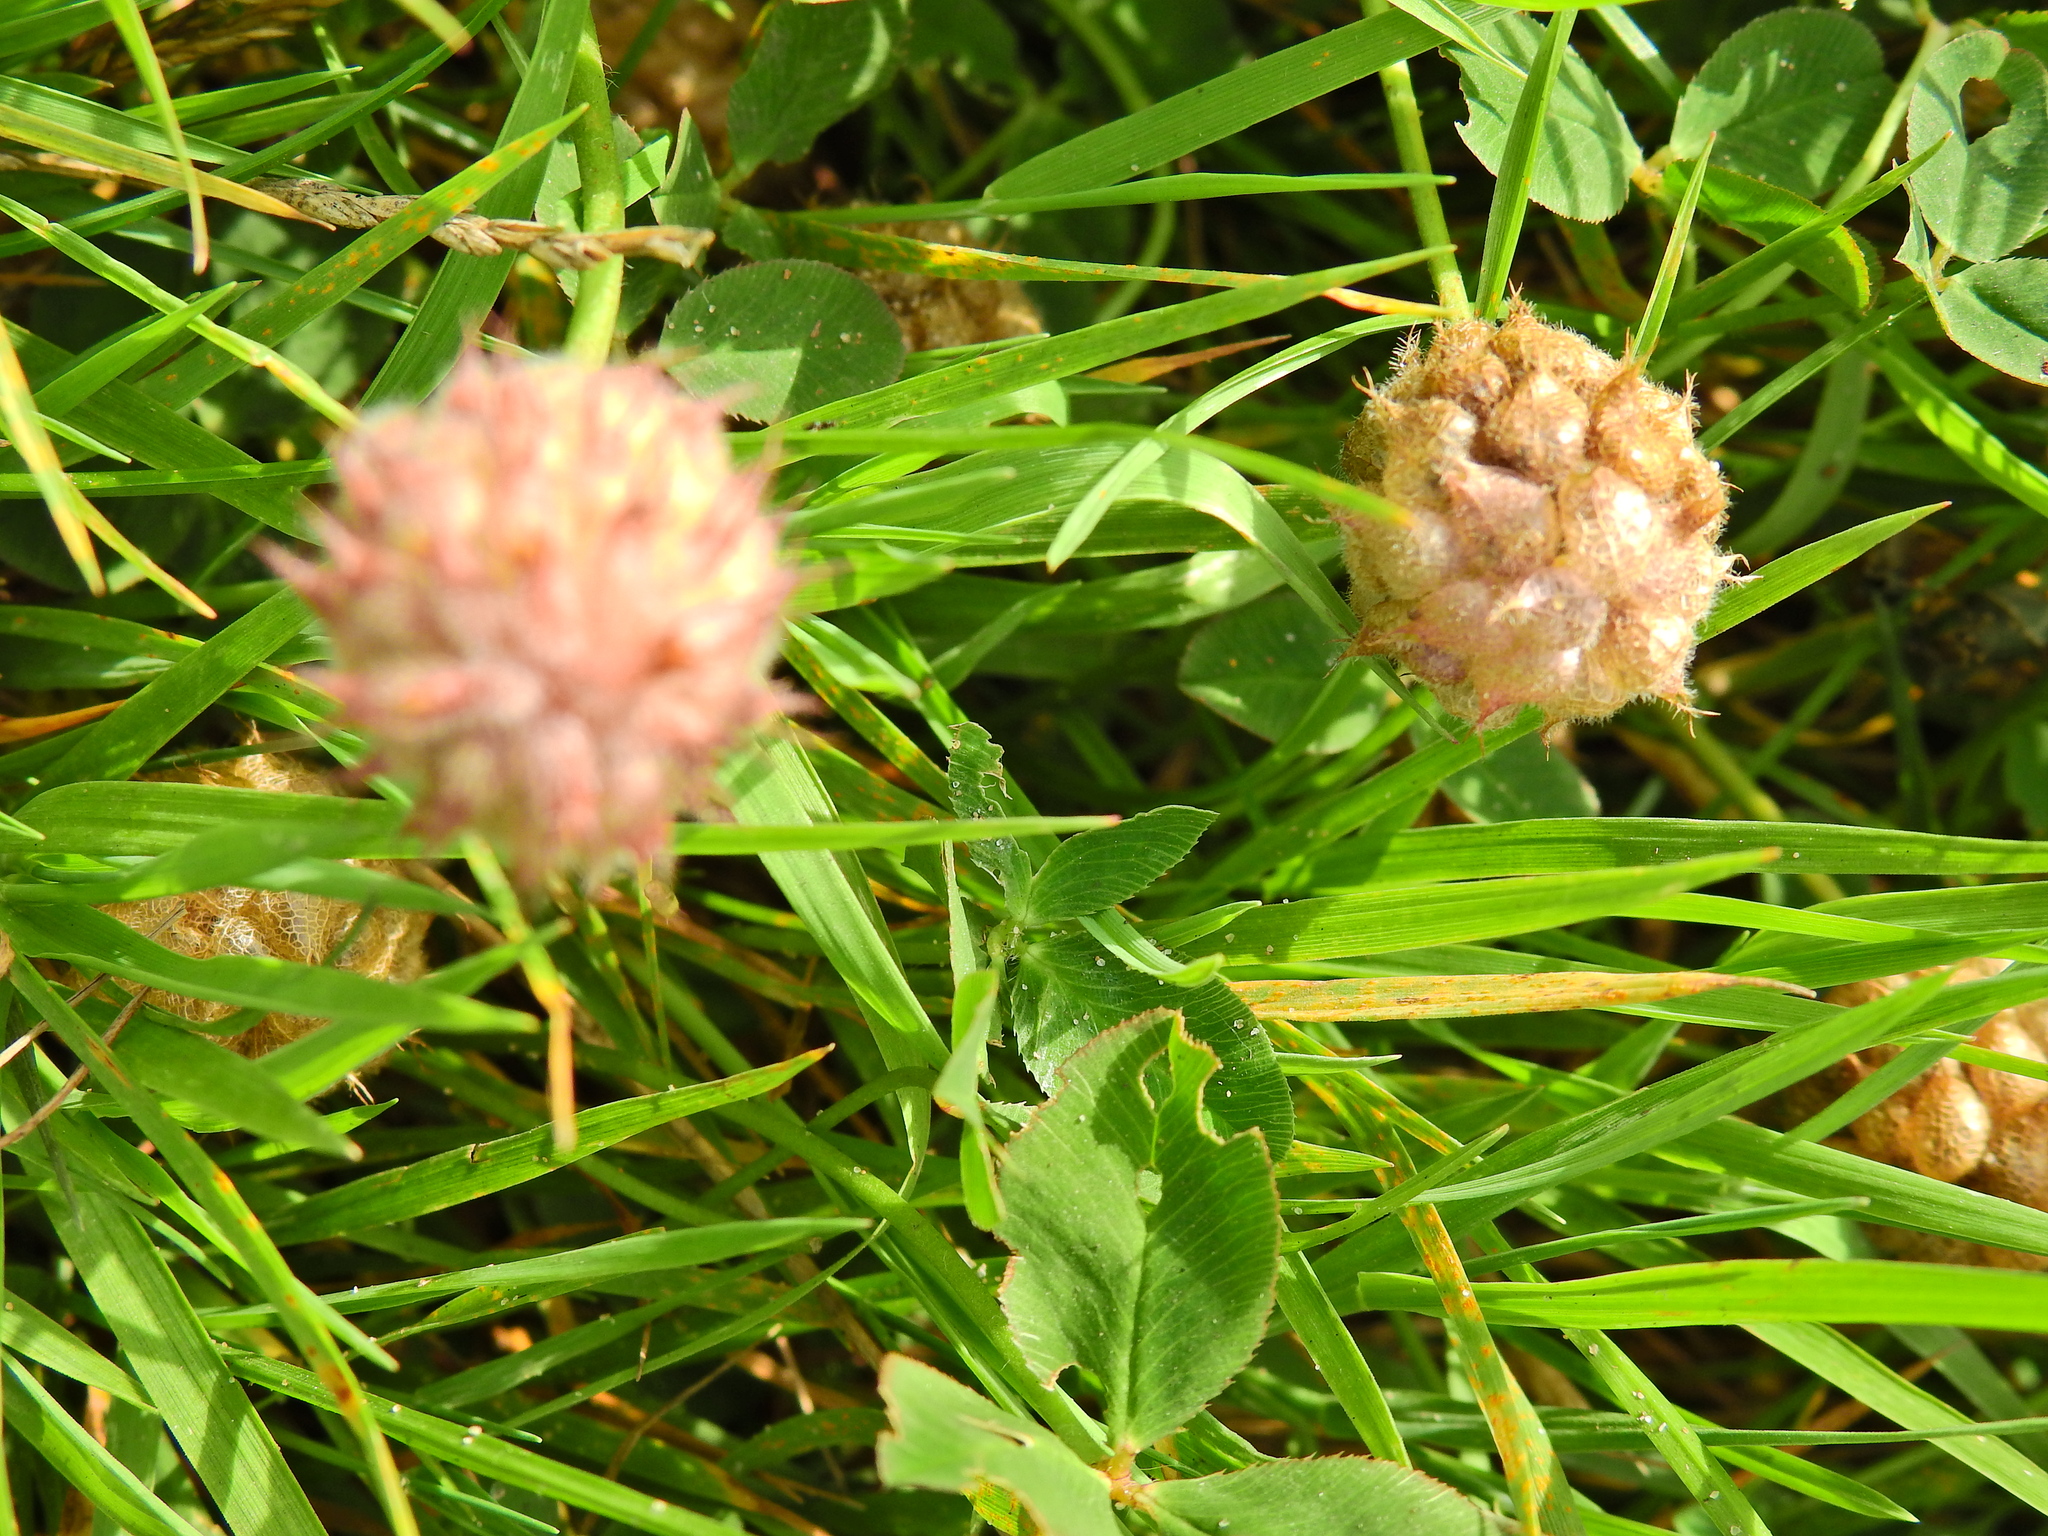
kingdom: Plantae
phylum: Tracheophyta
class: Magnoliopsida
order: Fabales
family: Fabaceae
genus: Trifolium
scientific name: Trifolium fragiferum
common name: Strawberry clover
